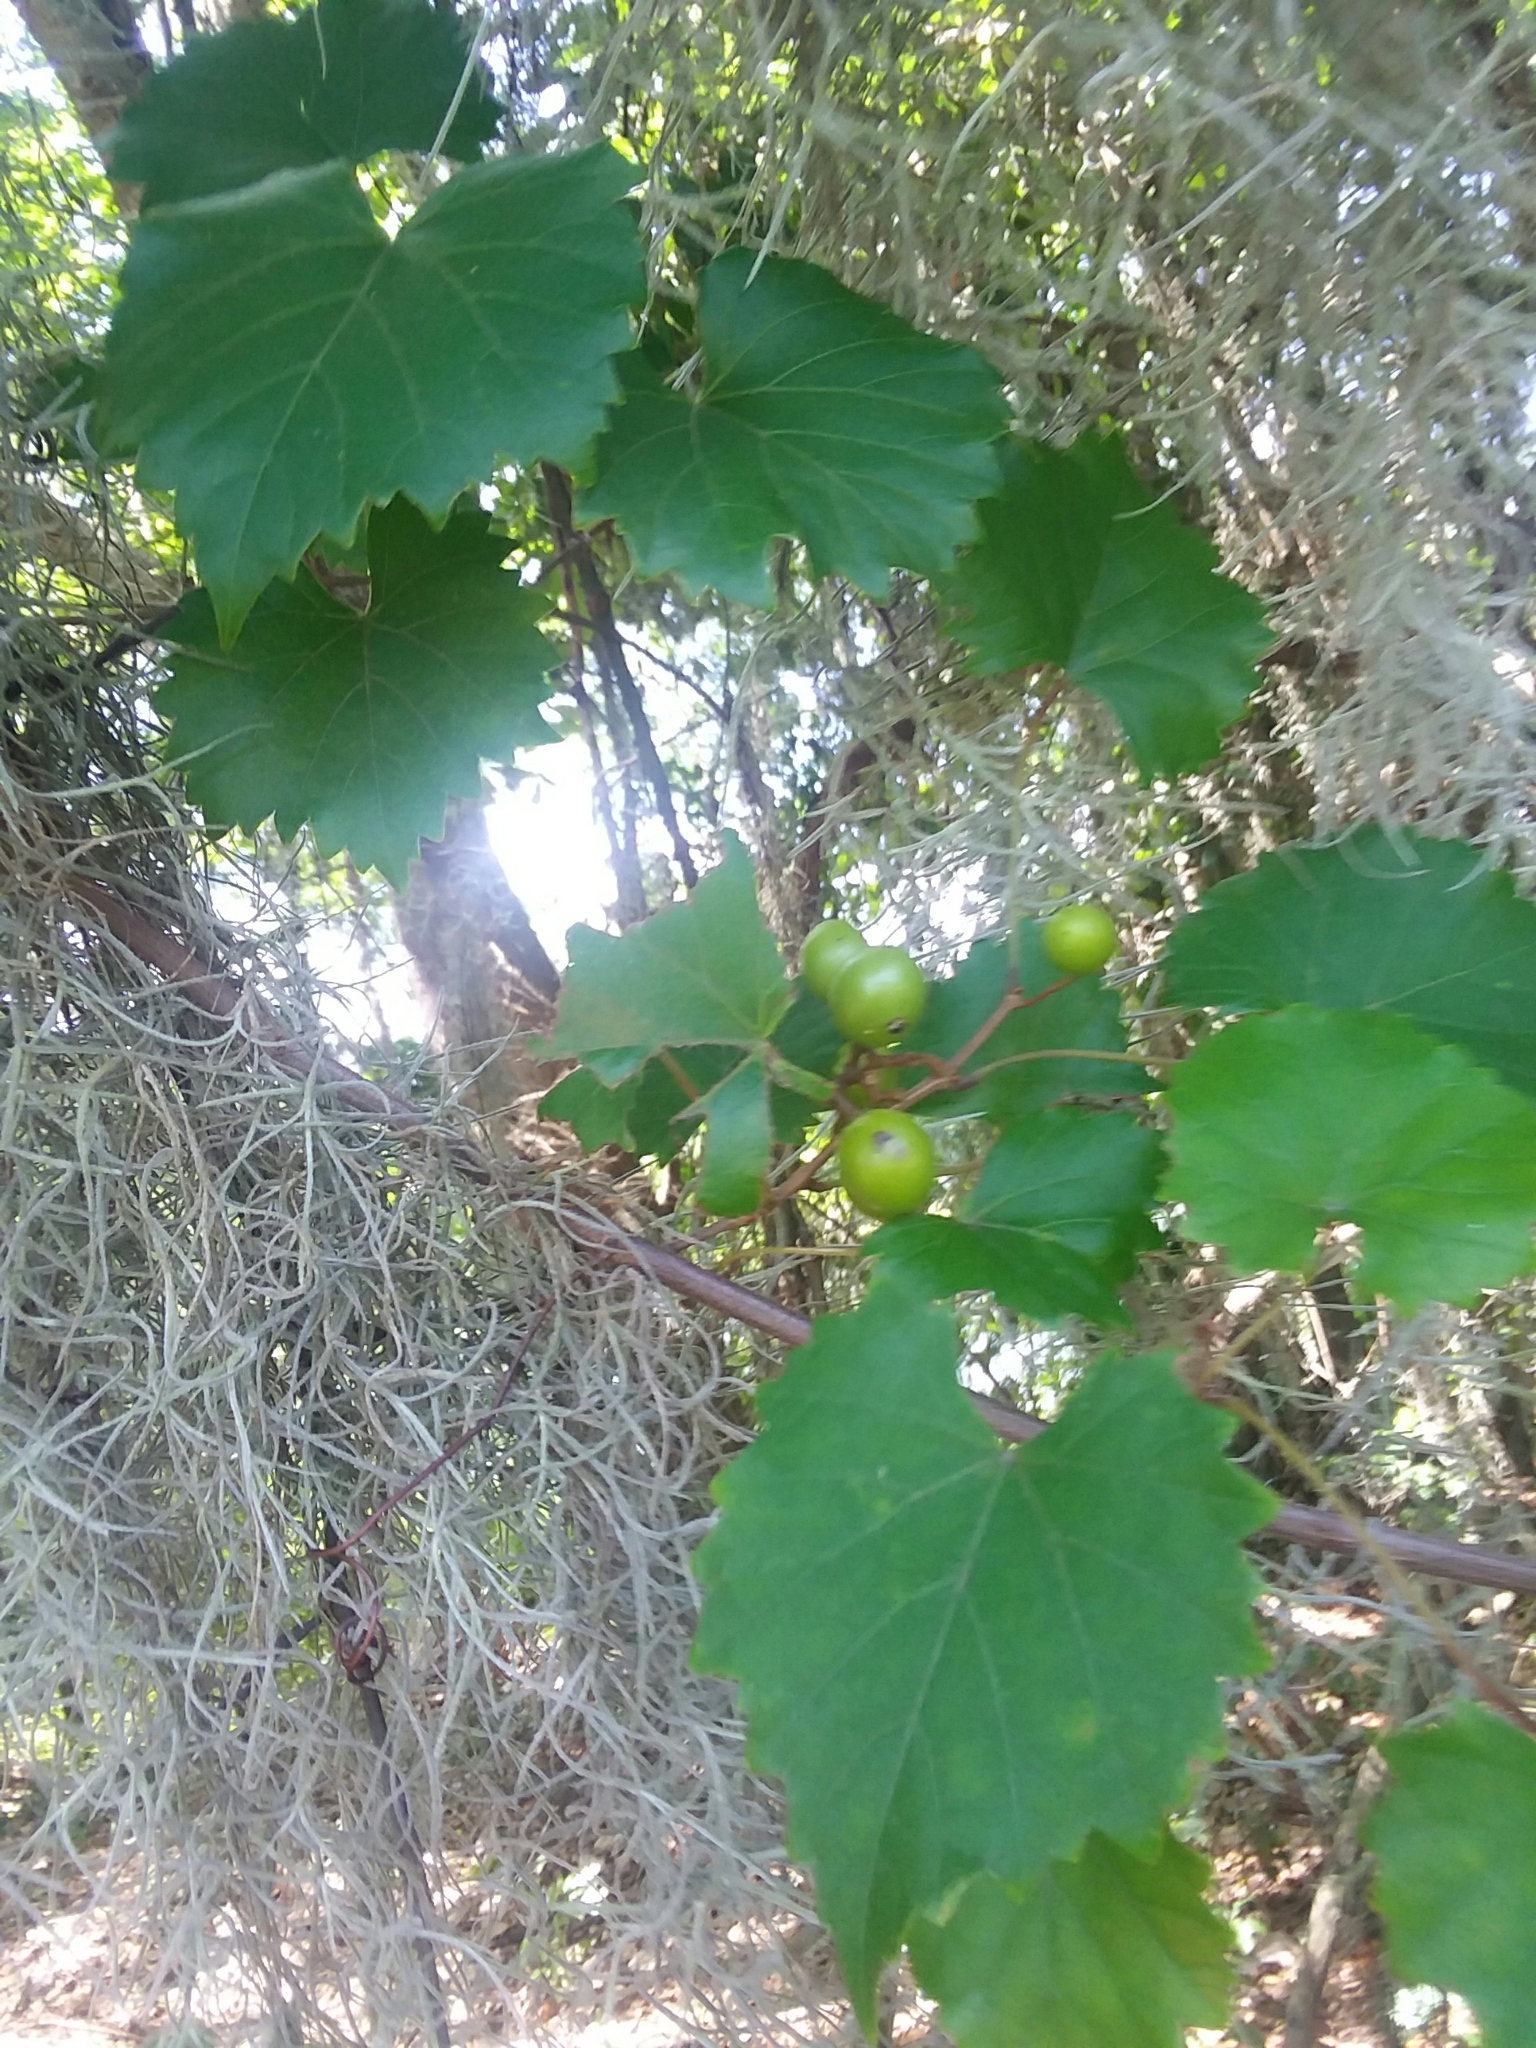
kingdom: Plantae
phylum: Tracheophyta
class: Magnoliopsida
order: Vitales
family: Vitaceae
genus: Vitis
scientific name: Vitis rotundifolia
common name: Muscadine grape
